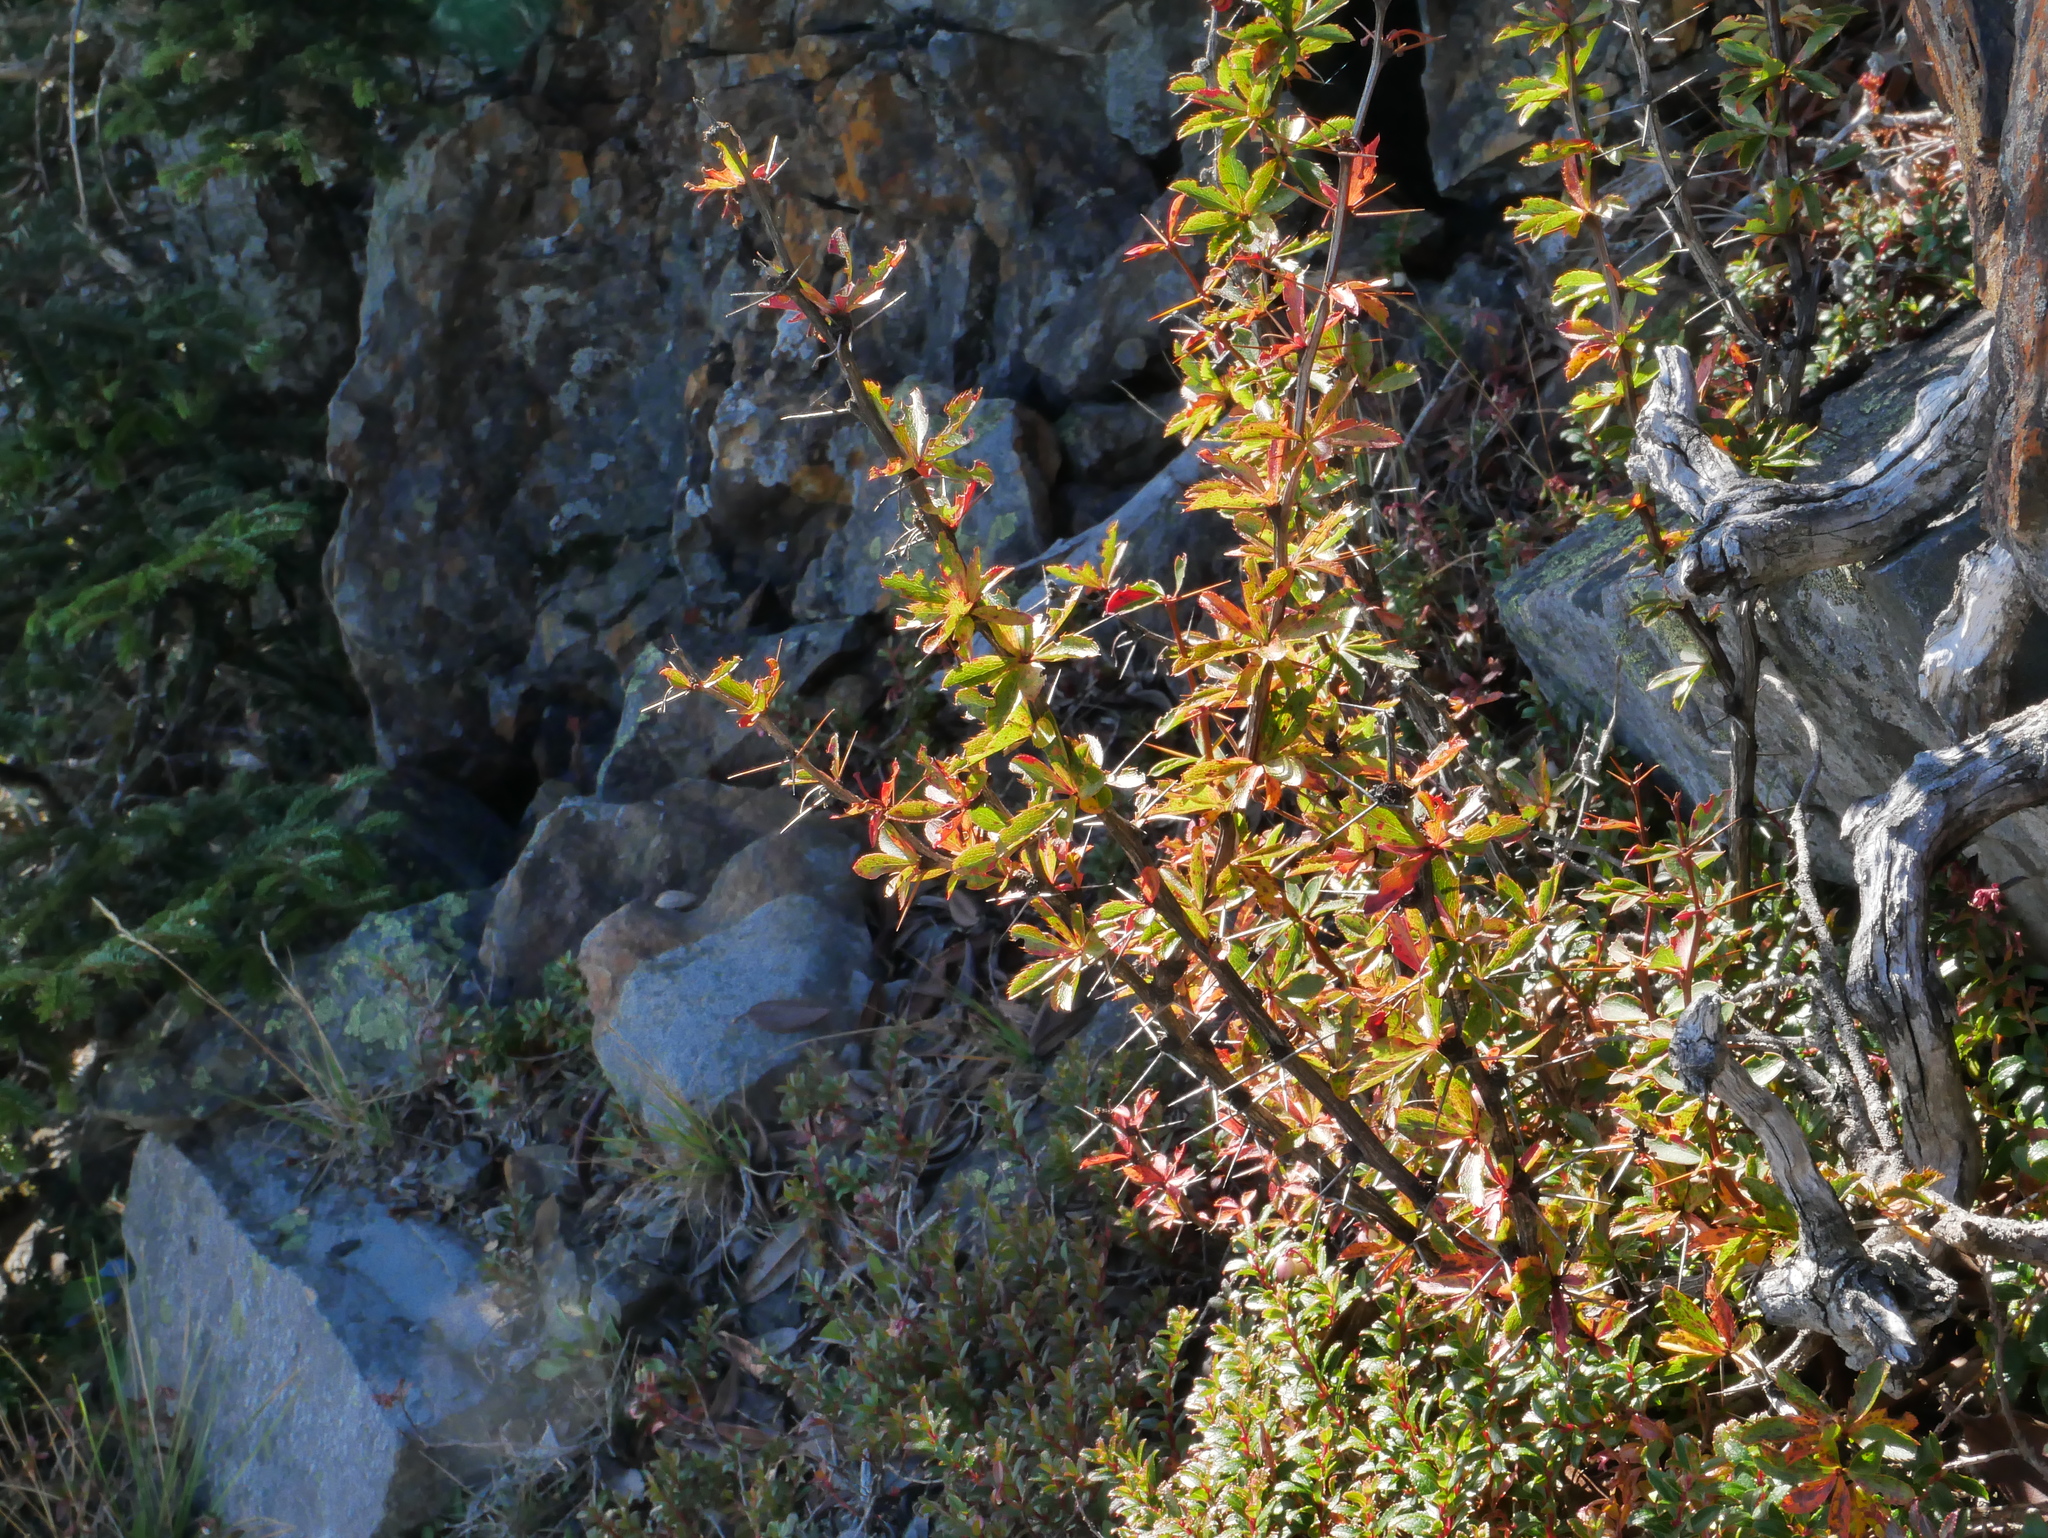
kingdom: Plantae
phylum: Tracheophyta
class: Magnoliopsida
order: Ranunculales
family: Berberidaceae
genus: Berberis
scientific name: Berberis morrisonensis
